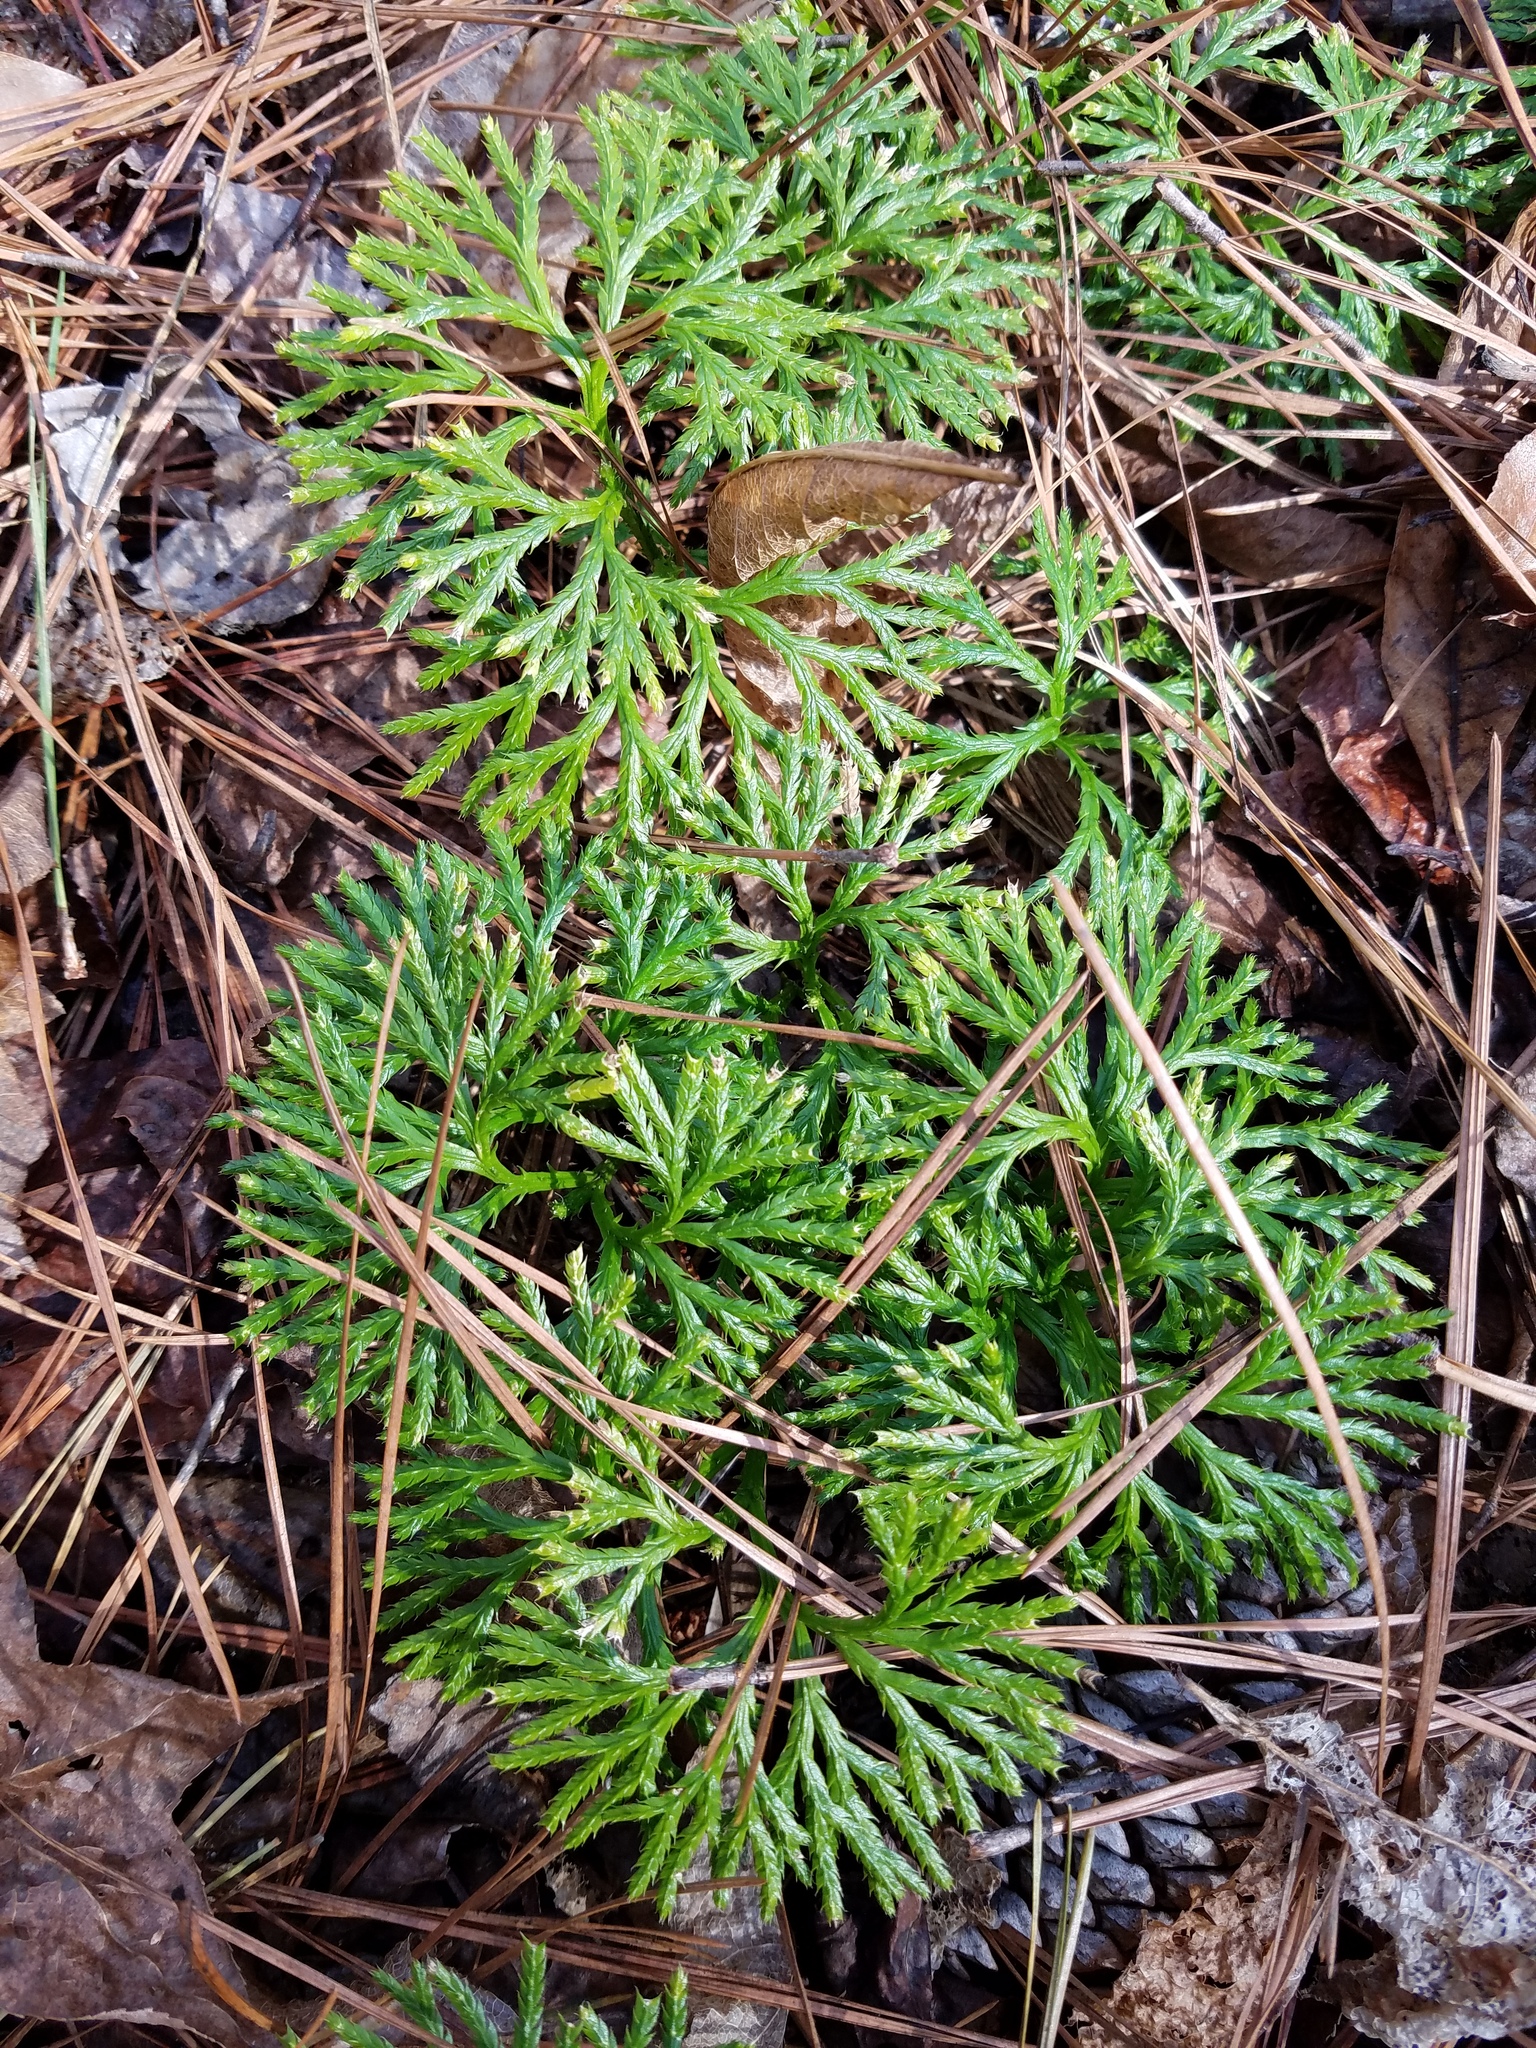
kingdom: Plantae
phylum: Tracheophyta
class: Lycopodiopsida
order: Lycopodiales
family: Lycopodiaceae
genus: Diphasiastrum
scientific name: Diphasiastrum digitatum
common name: Southern running-pine
